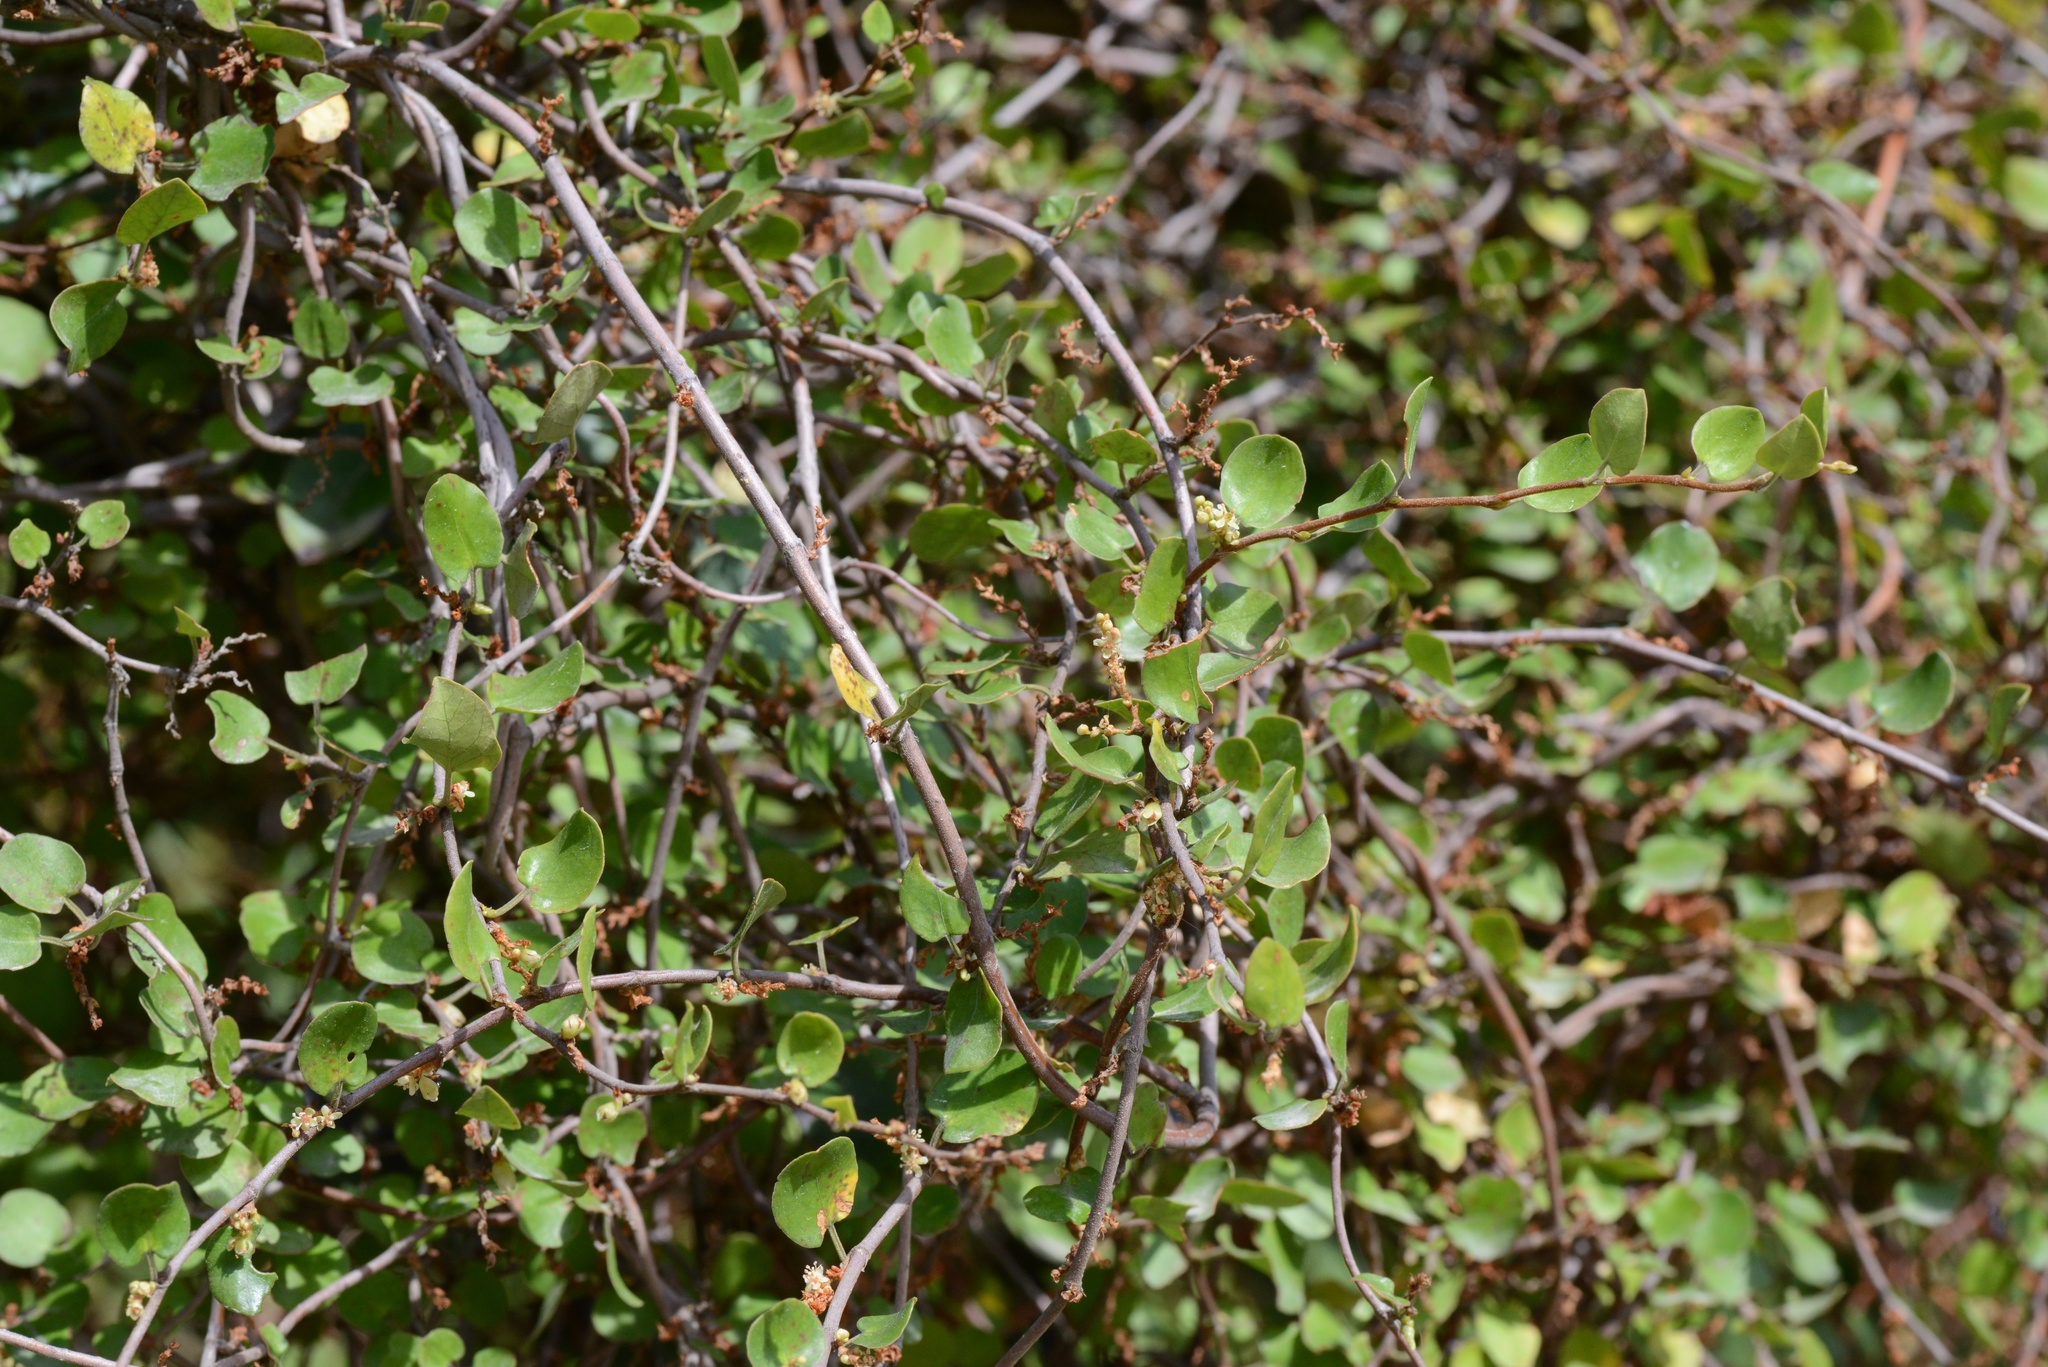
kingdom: Plantae
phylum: Tracheophyta
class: Magnoliopsida
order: Caryophyllales
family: Polygonaceae
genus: Muehlenbeckia
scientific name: Muehlenbeckia complexa
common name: Wireplant
